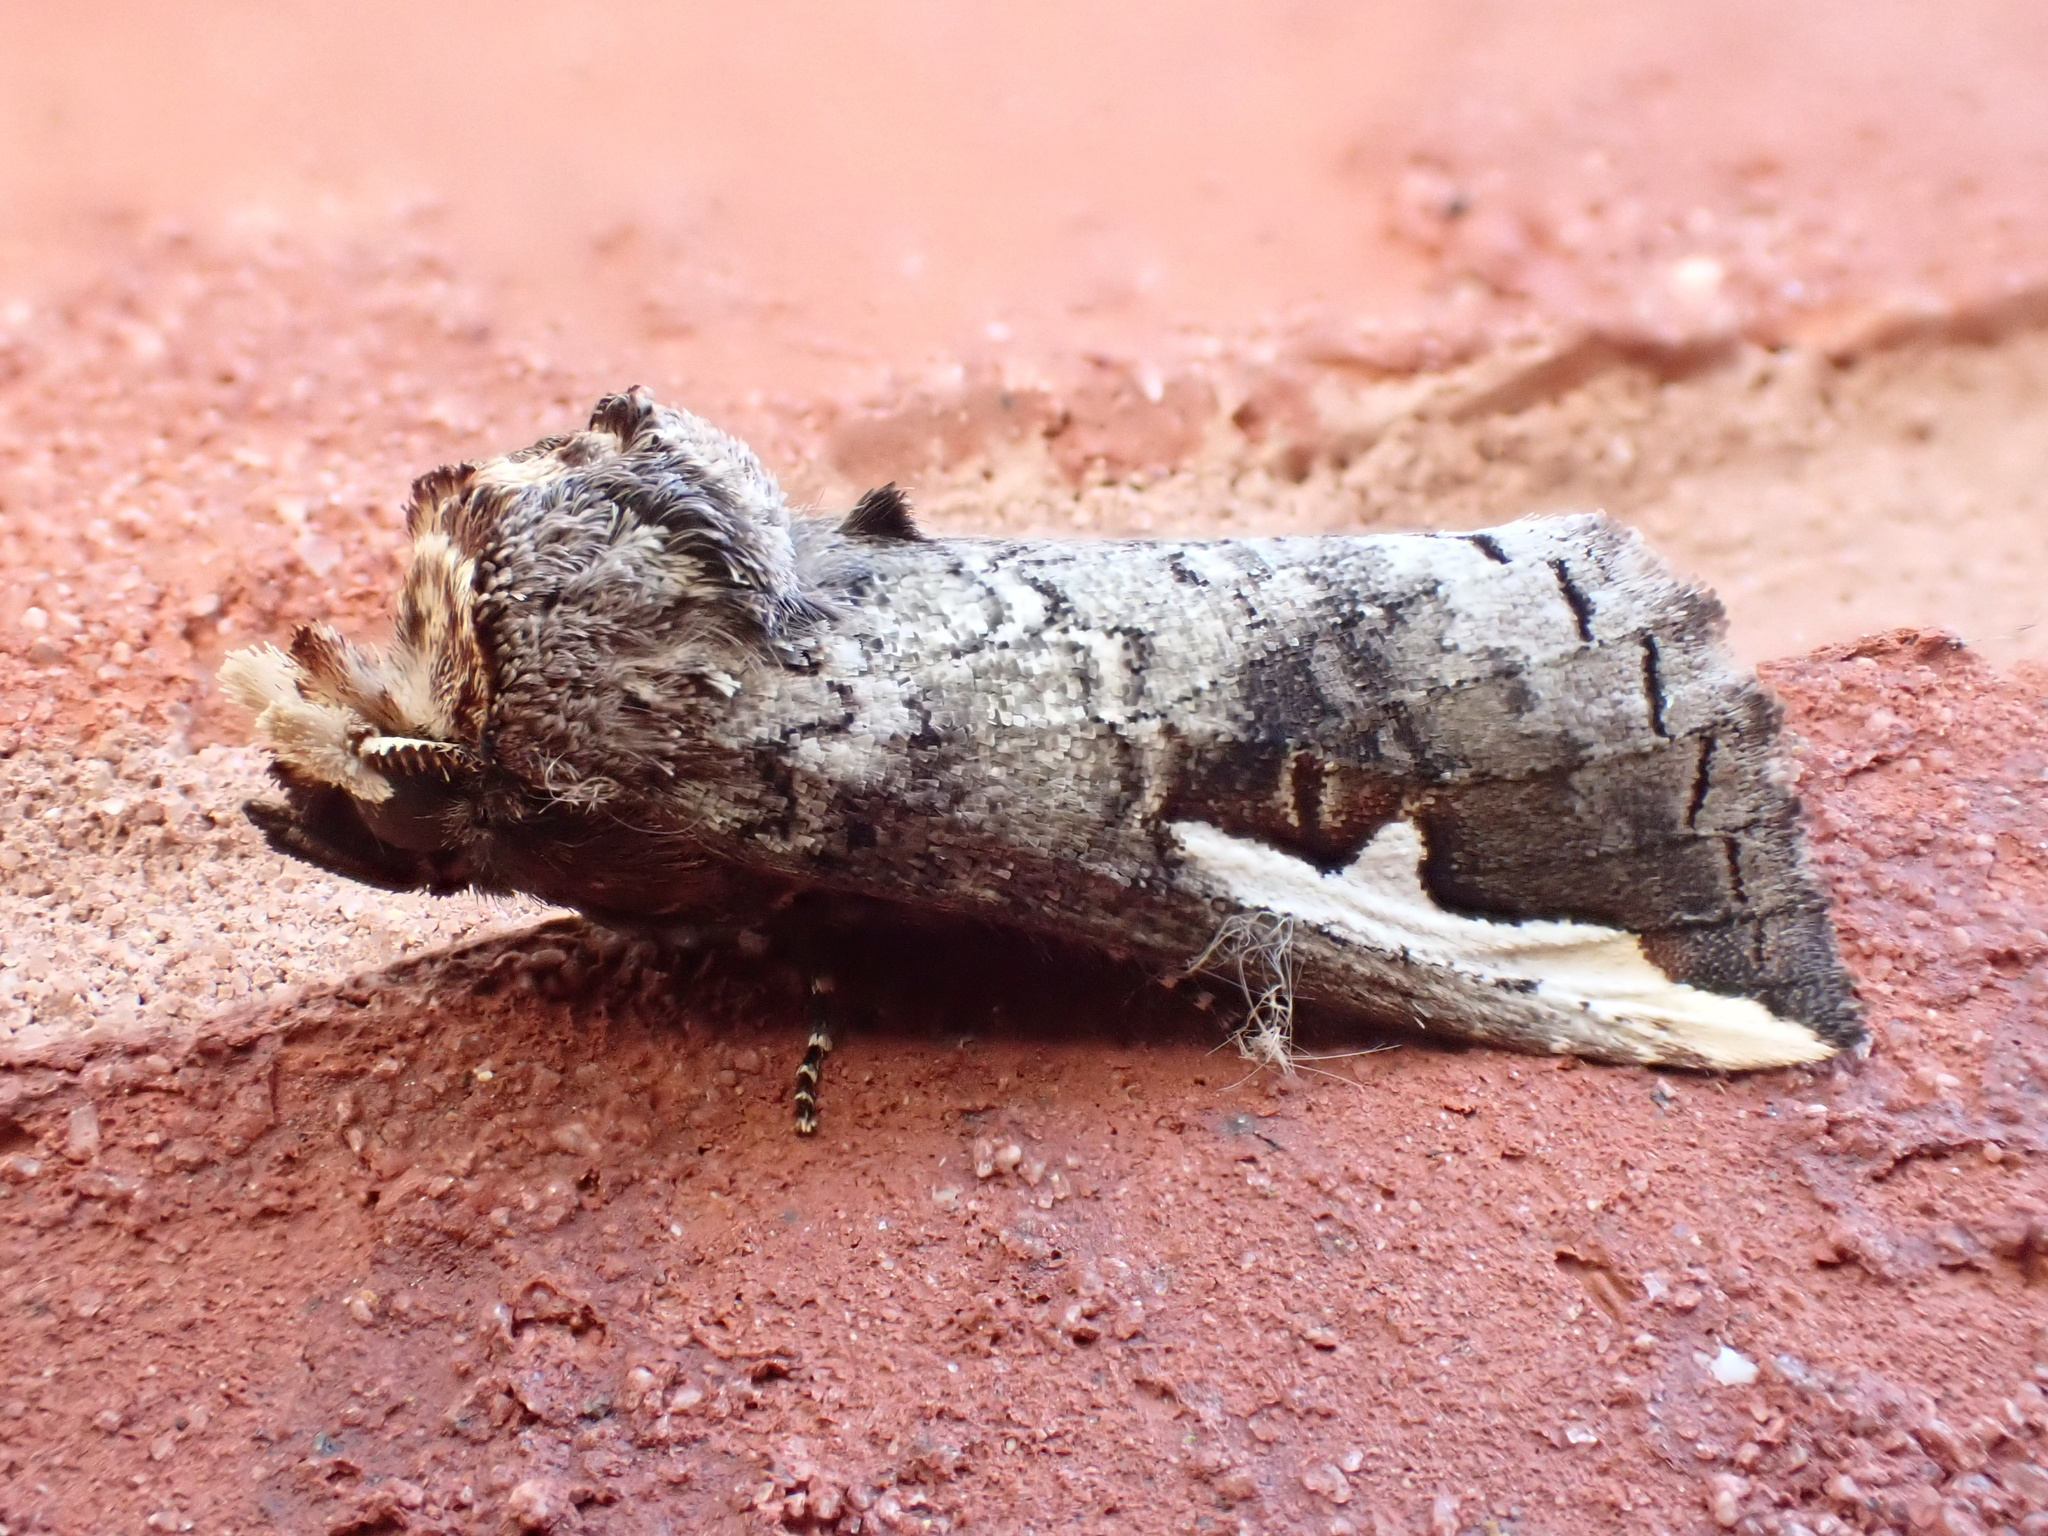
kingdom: Animalia
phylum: Arthropoda
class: Insecta
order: Lepidoptera
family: Notodontidae
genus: Symmerista
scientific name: Symmerista albifrons
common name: White-headed prominent
